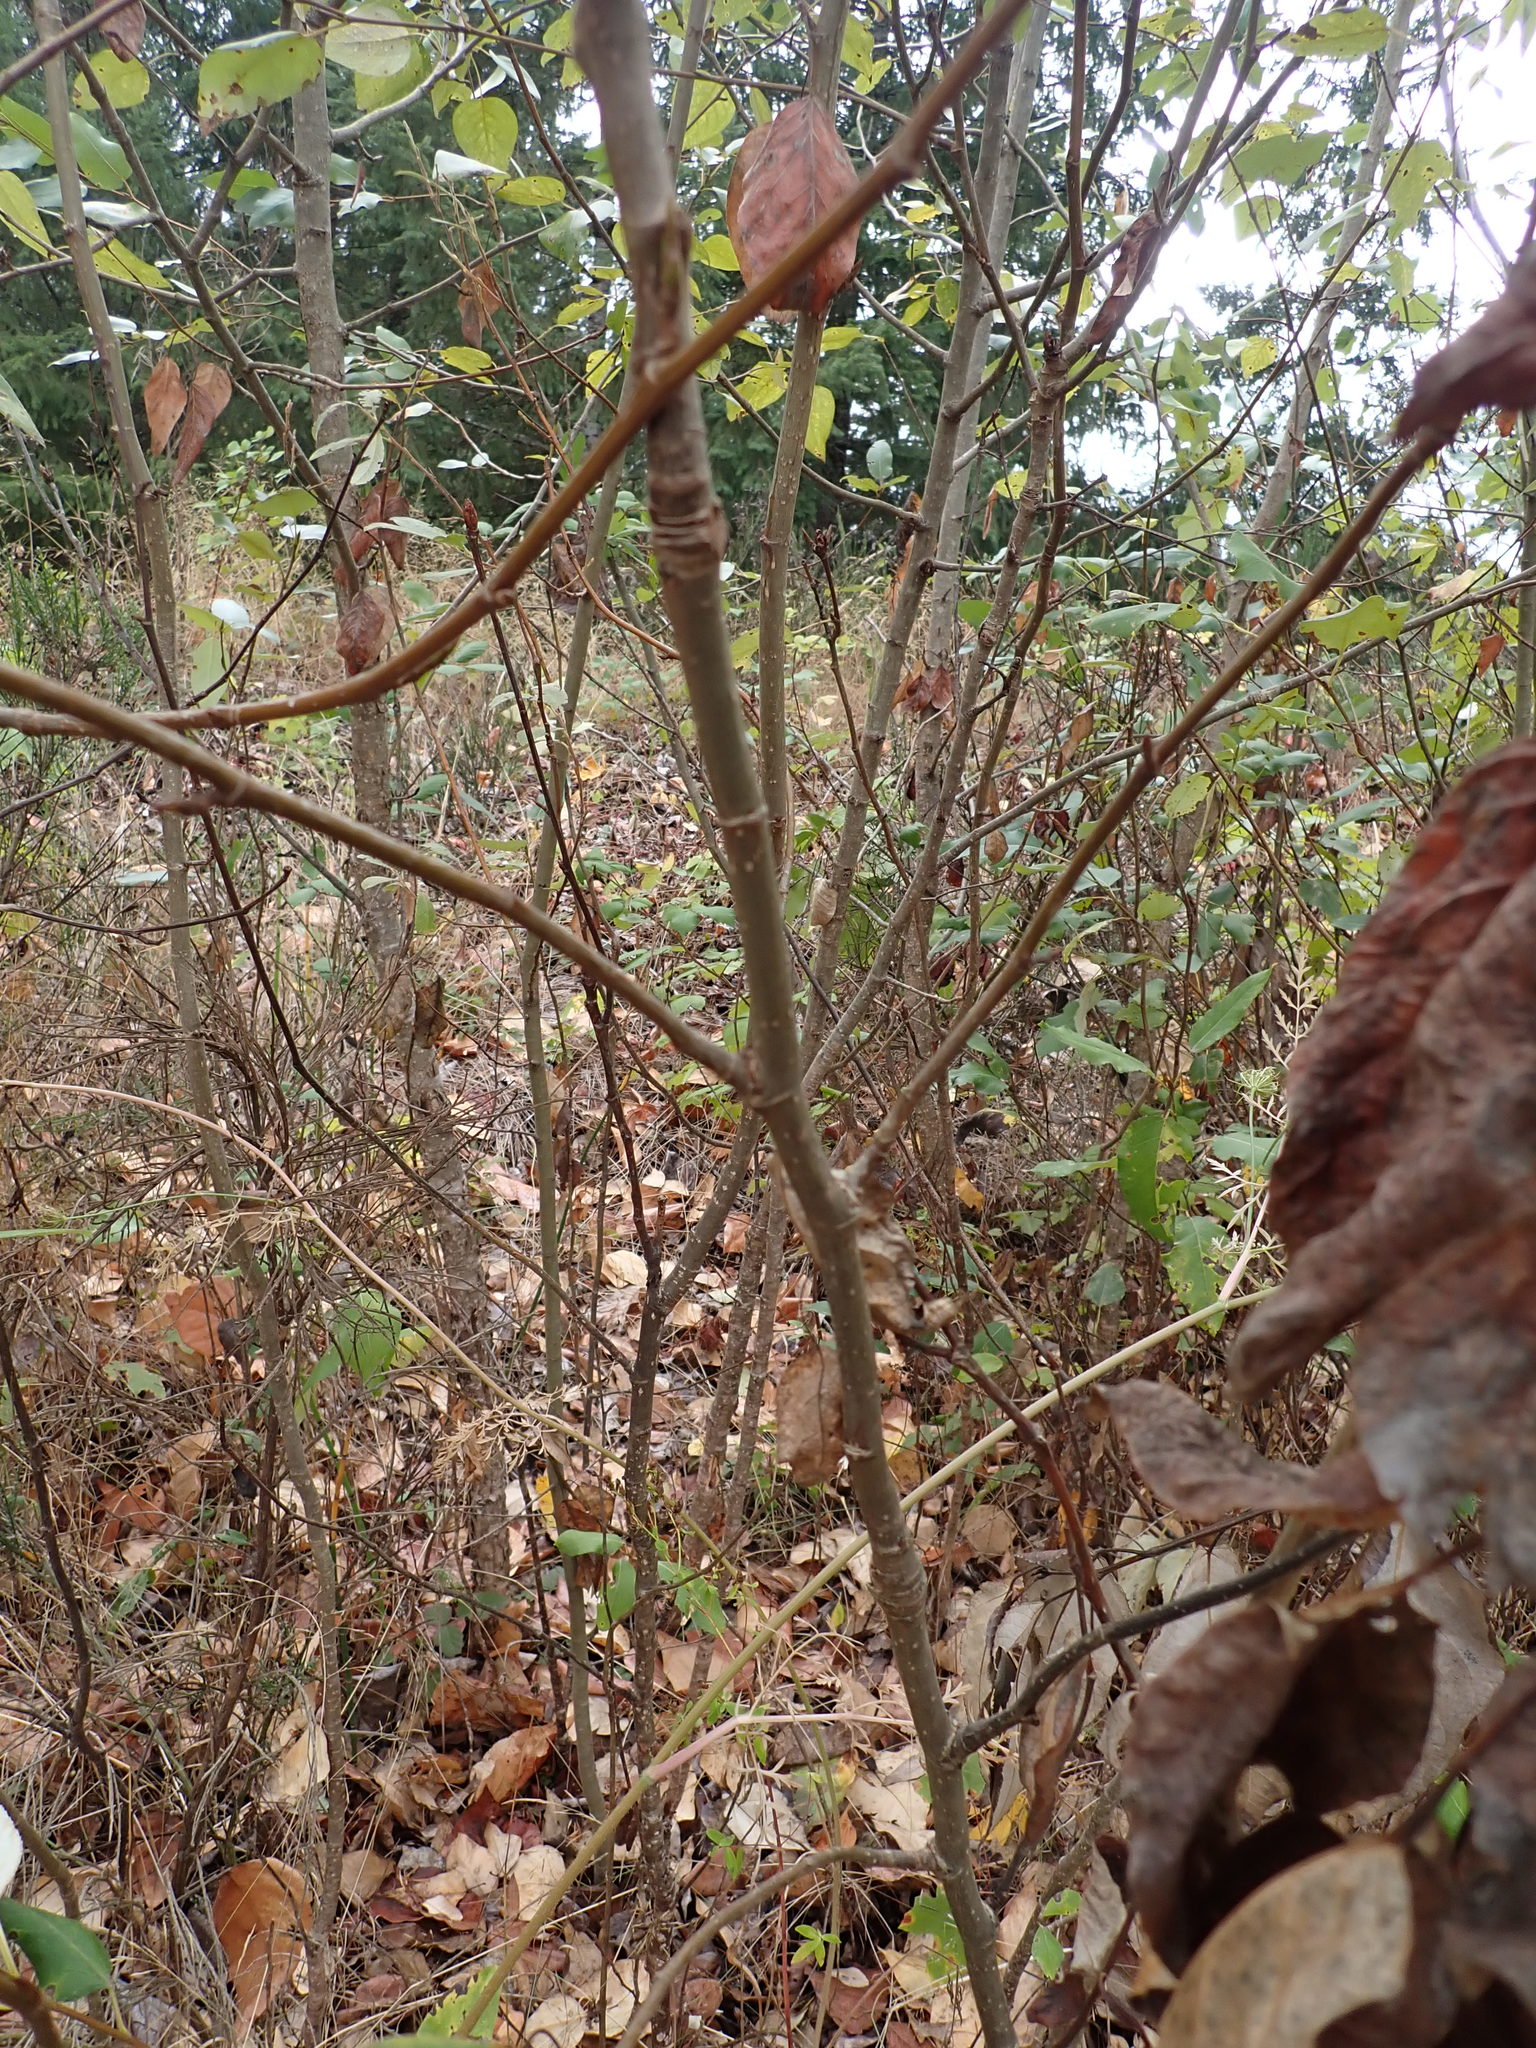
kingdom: Plantae
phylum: Tracheophyta
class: Magnoliopsida
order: Malpighiales
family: Salicaceae
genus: Populus
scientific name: Populus trichocarpa
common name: Black cottonwood
